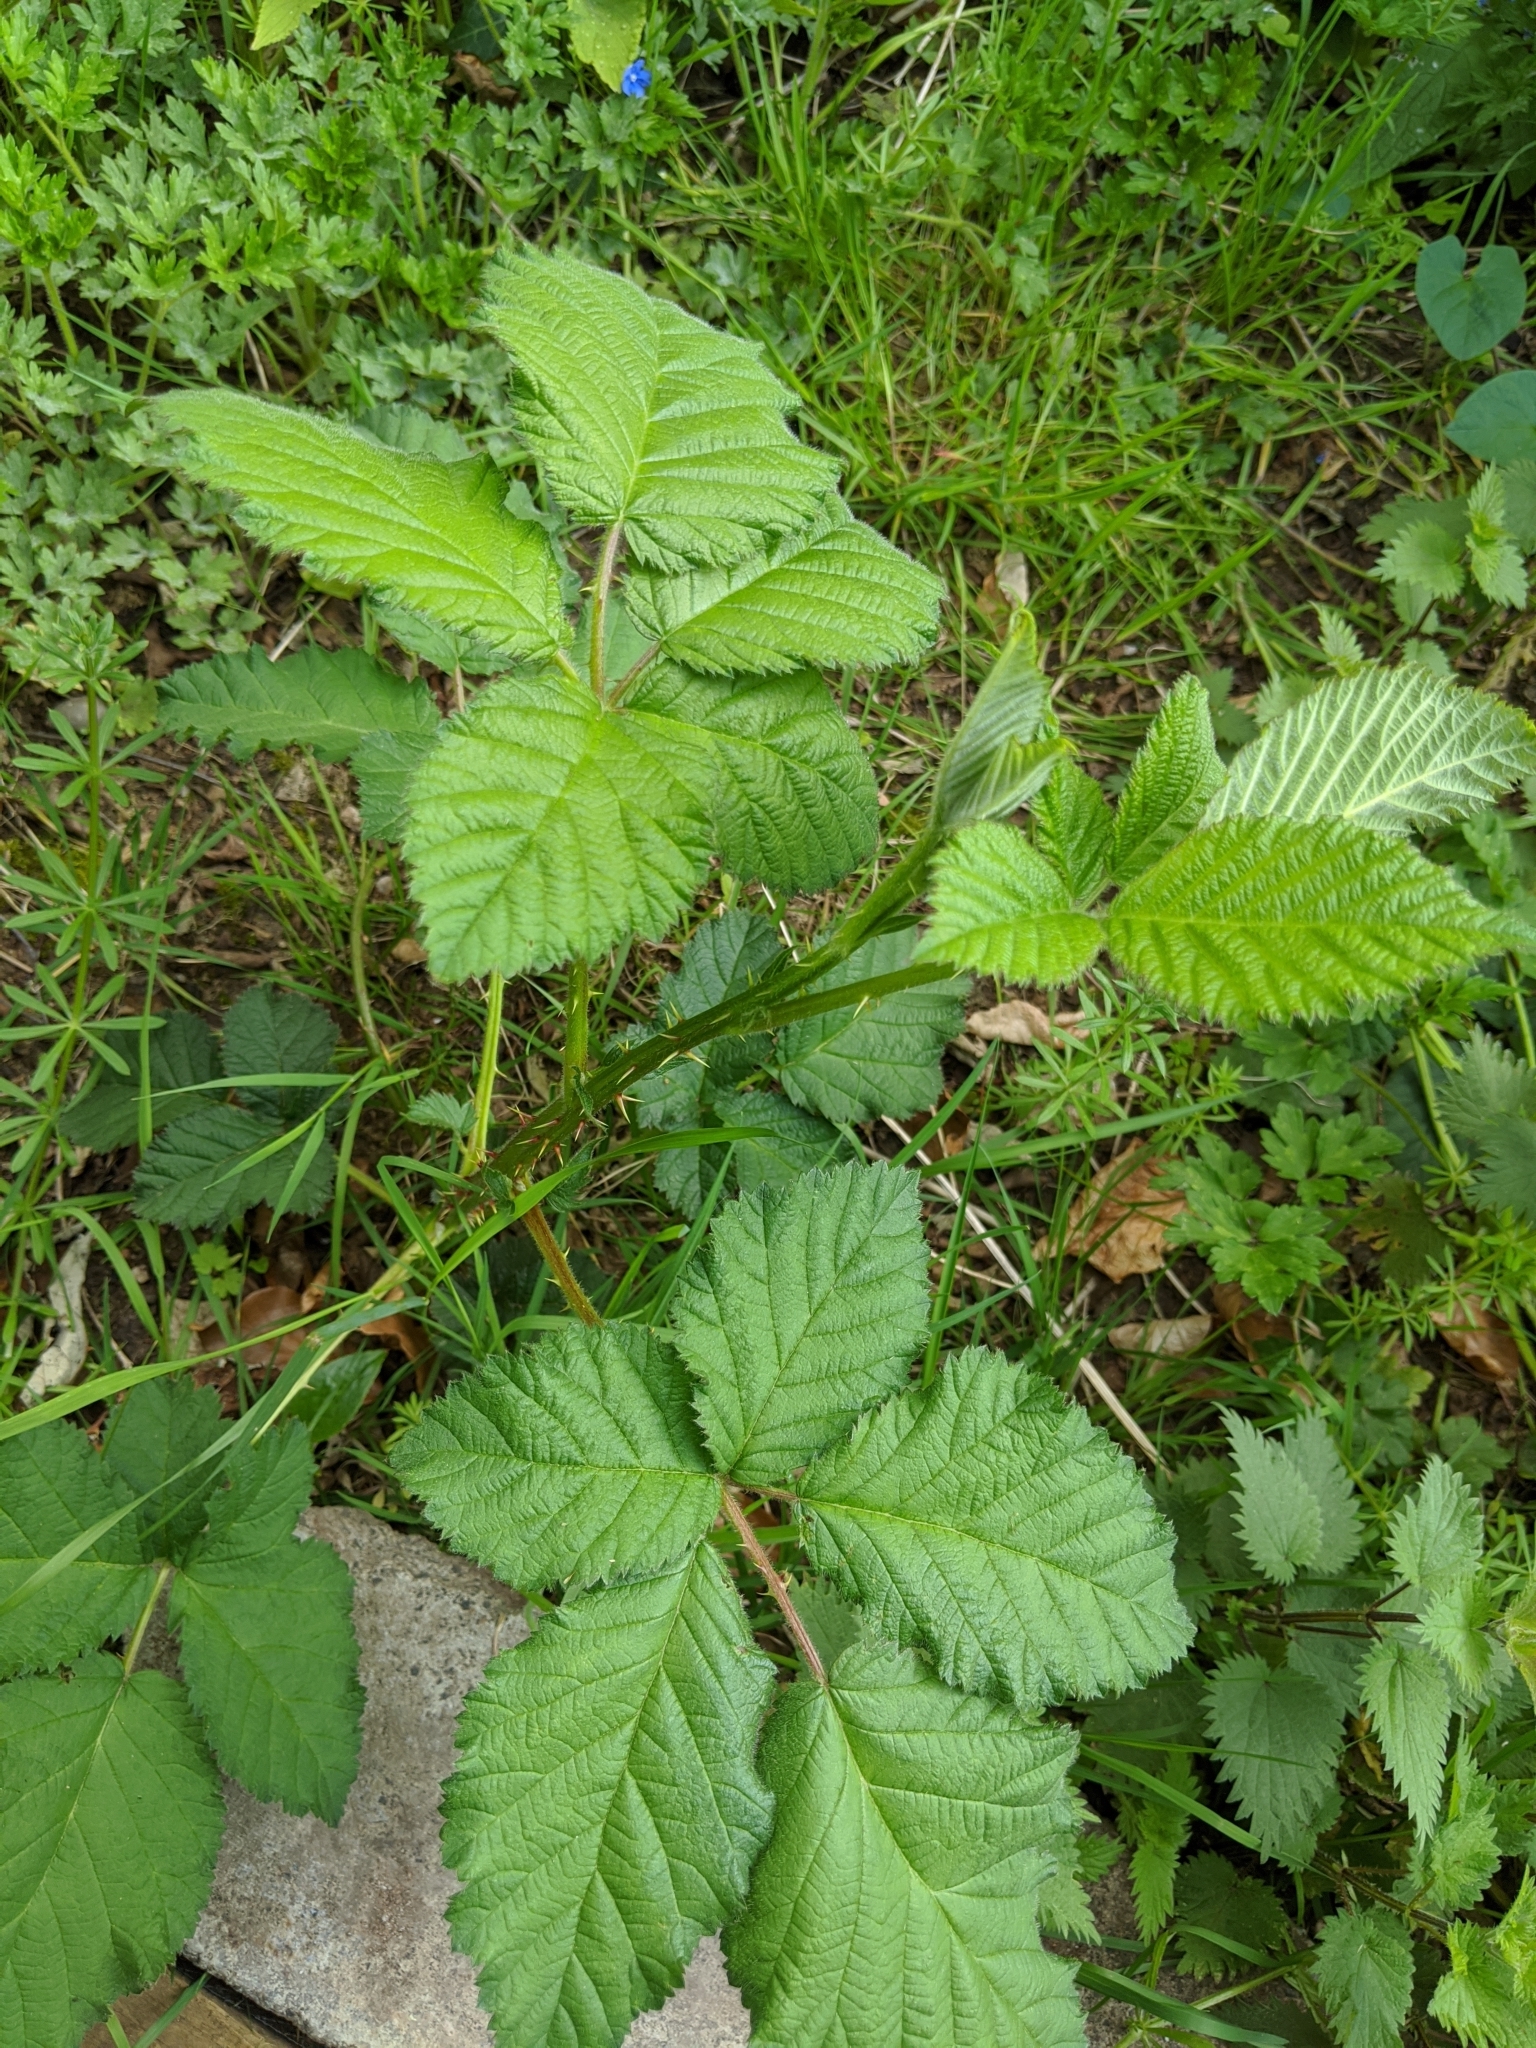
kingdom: Plantae
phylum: Tracheophyta
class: Magnoliopsida
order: Rosales
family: Rosaceae
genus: Rubus
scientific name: Rubus
